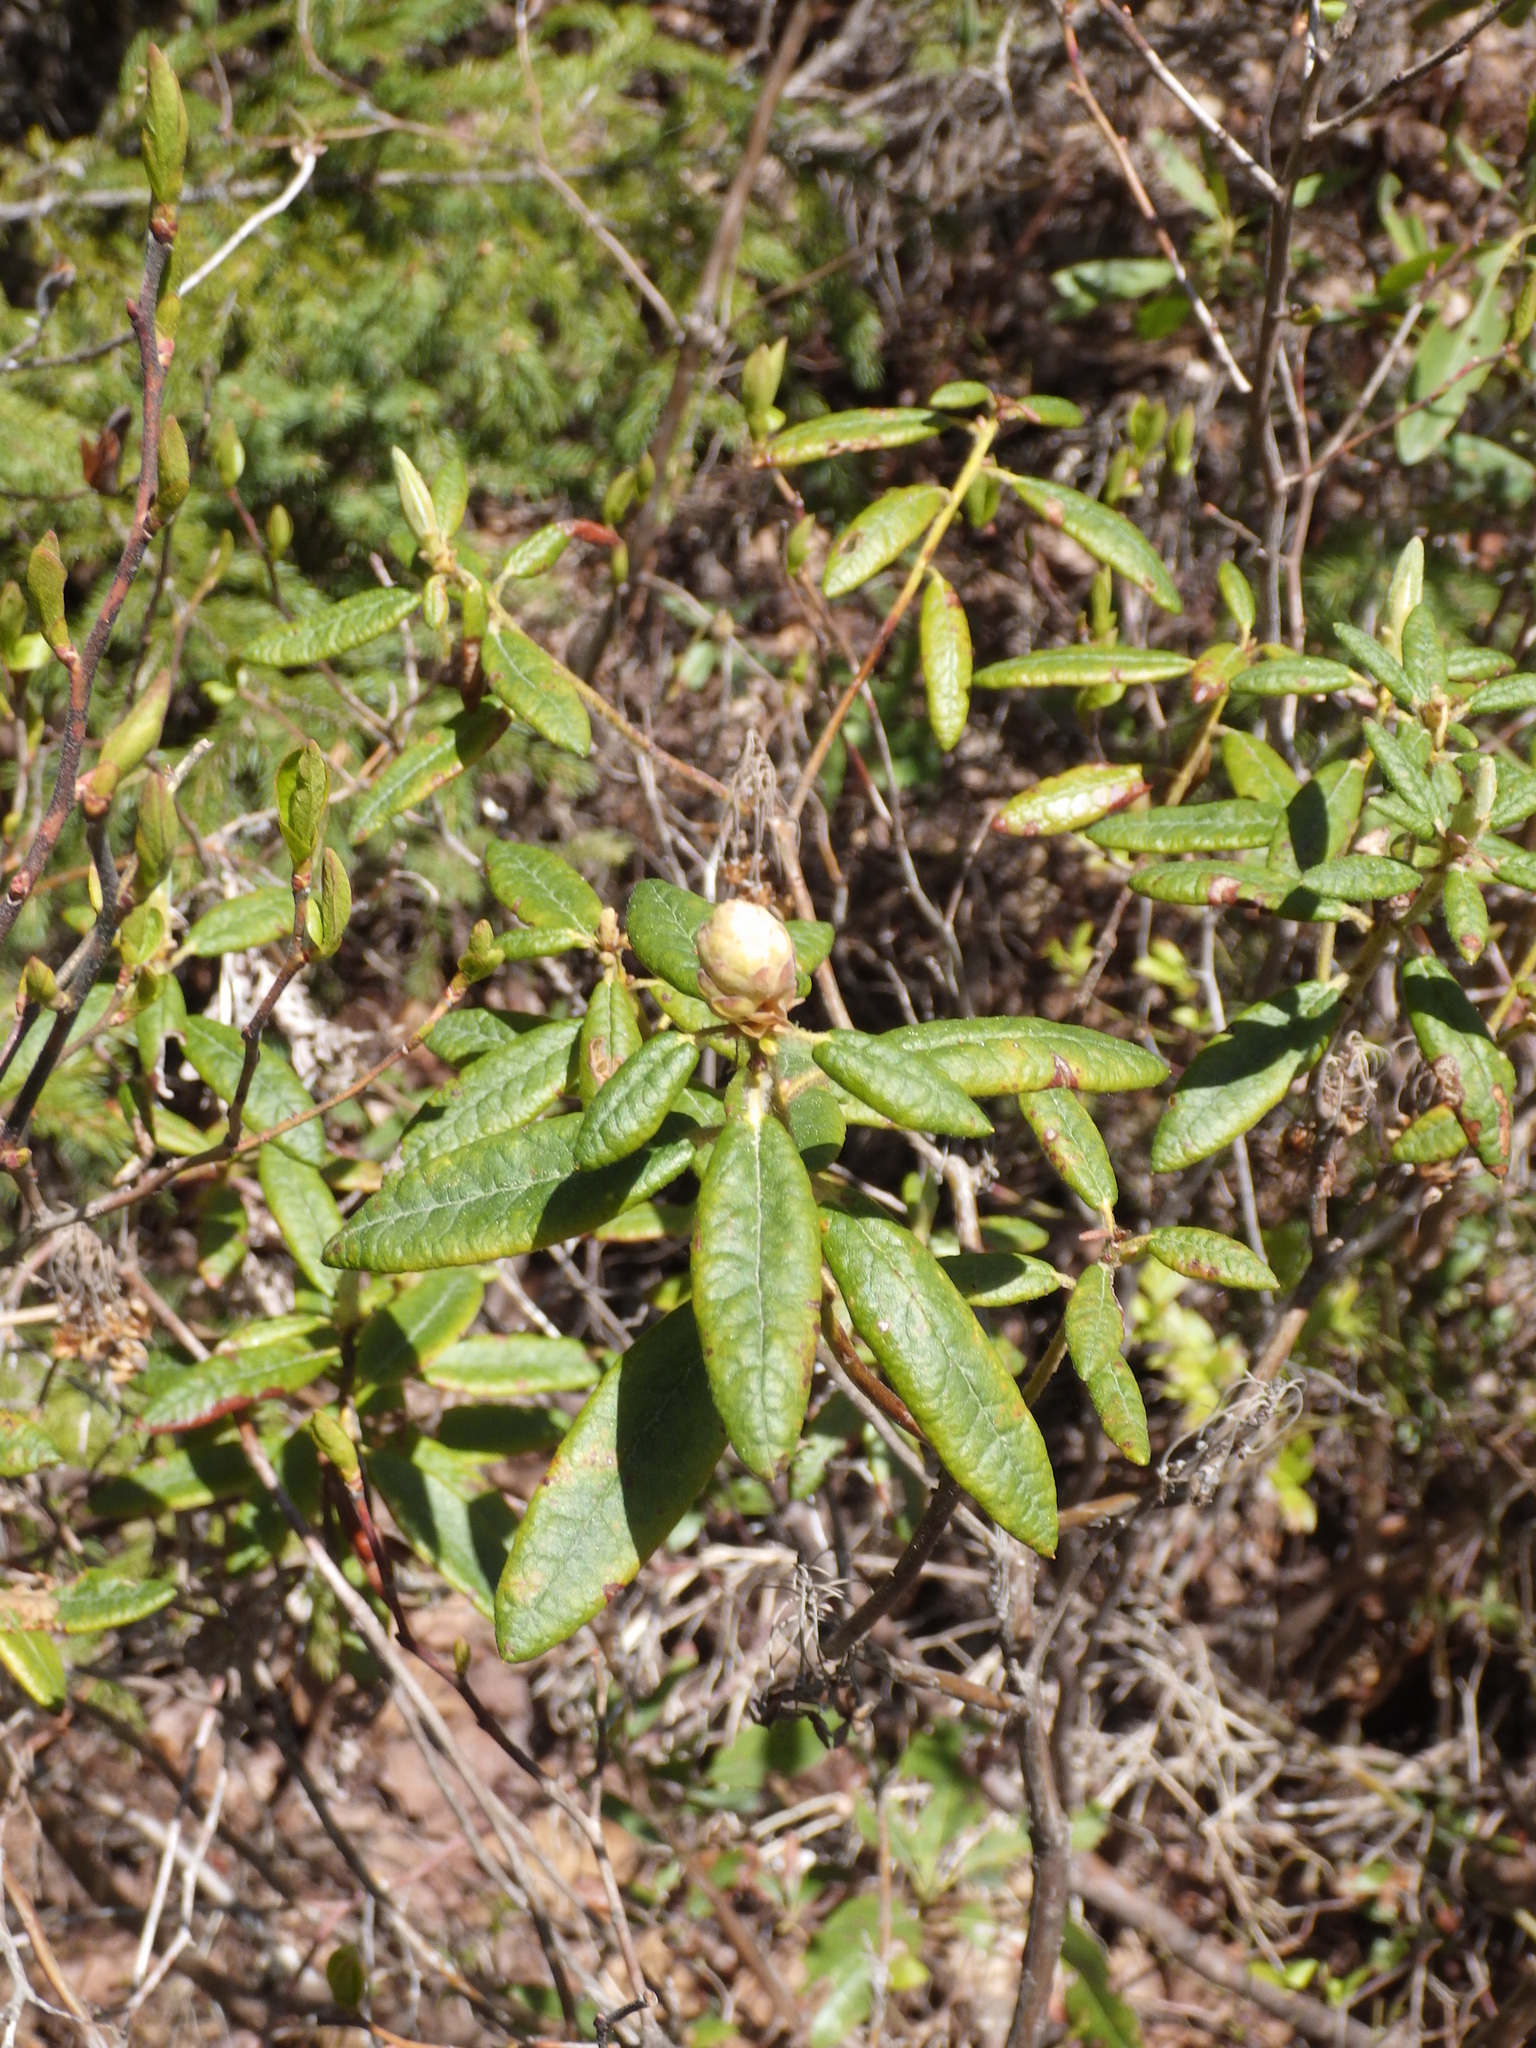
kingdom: Plantae
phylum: Tracheophyta
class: Magnoliopsida
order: Ericales
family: Ericaceae
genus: Rhododendron
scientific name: Rhododendron groenlandicum
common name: Bog labrador tea
